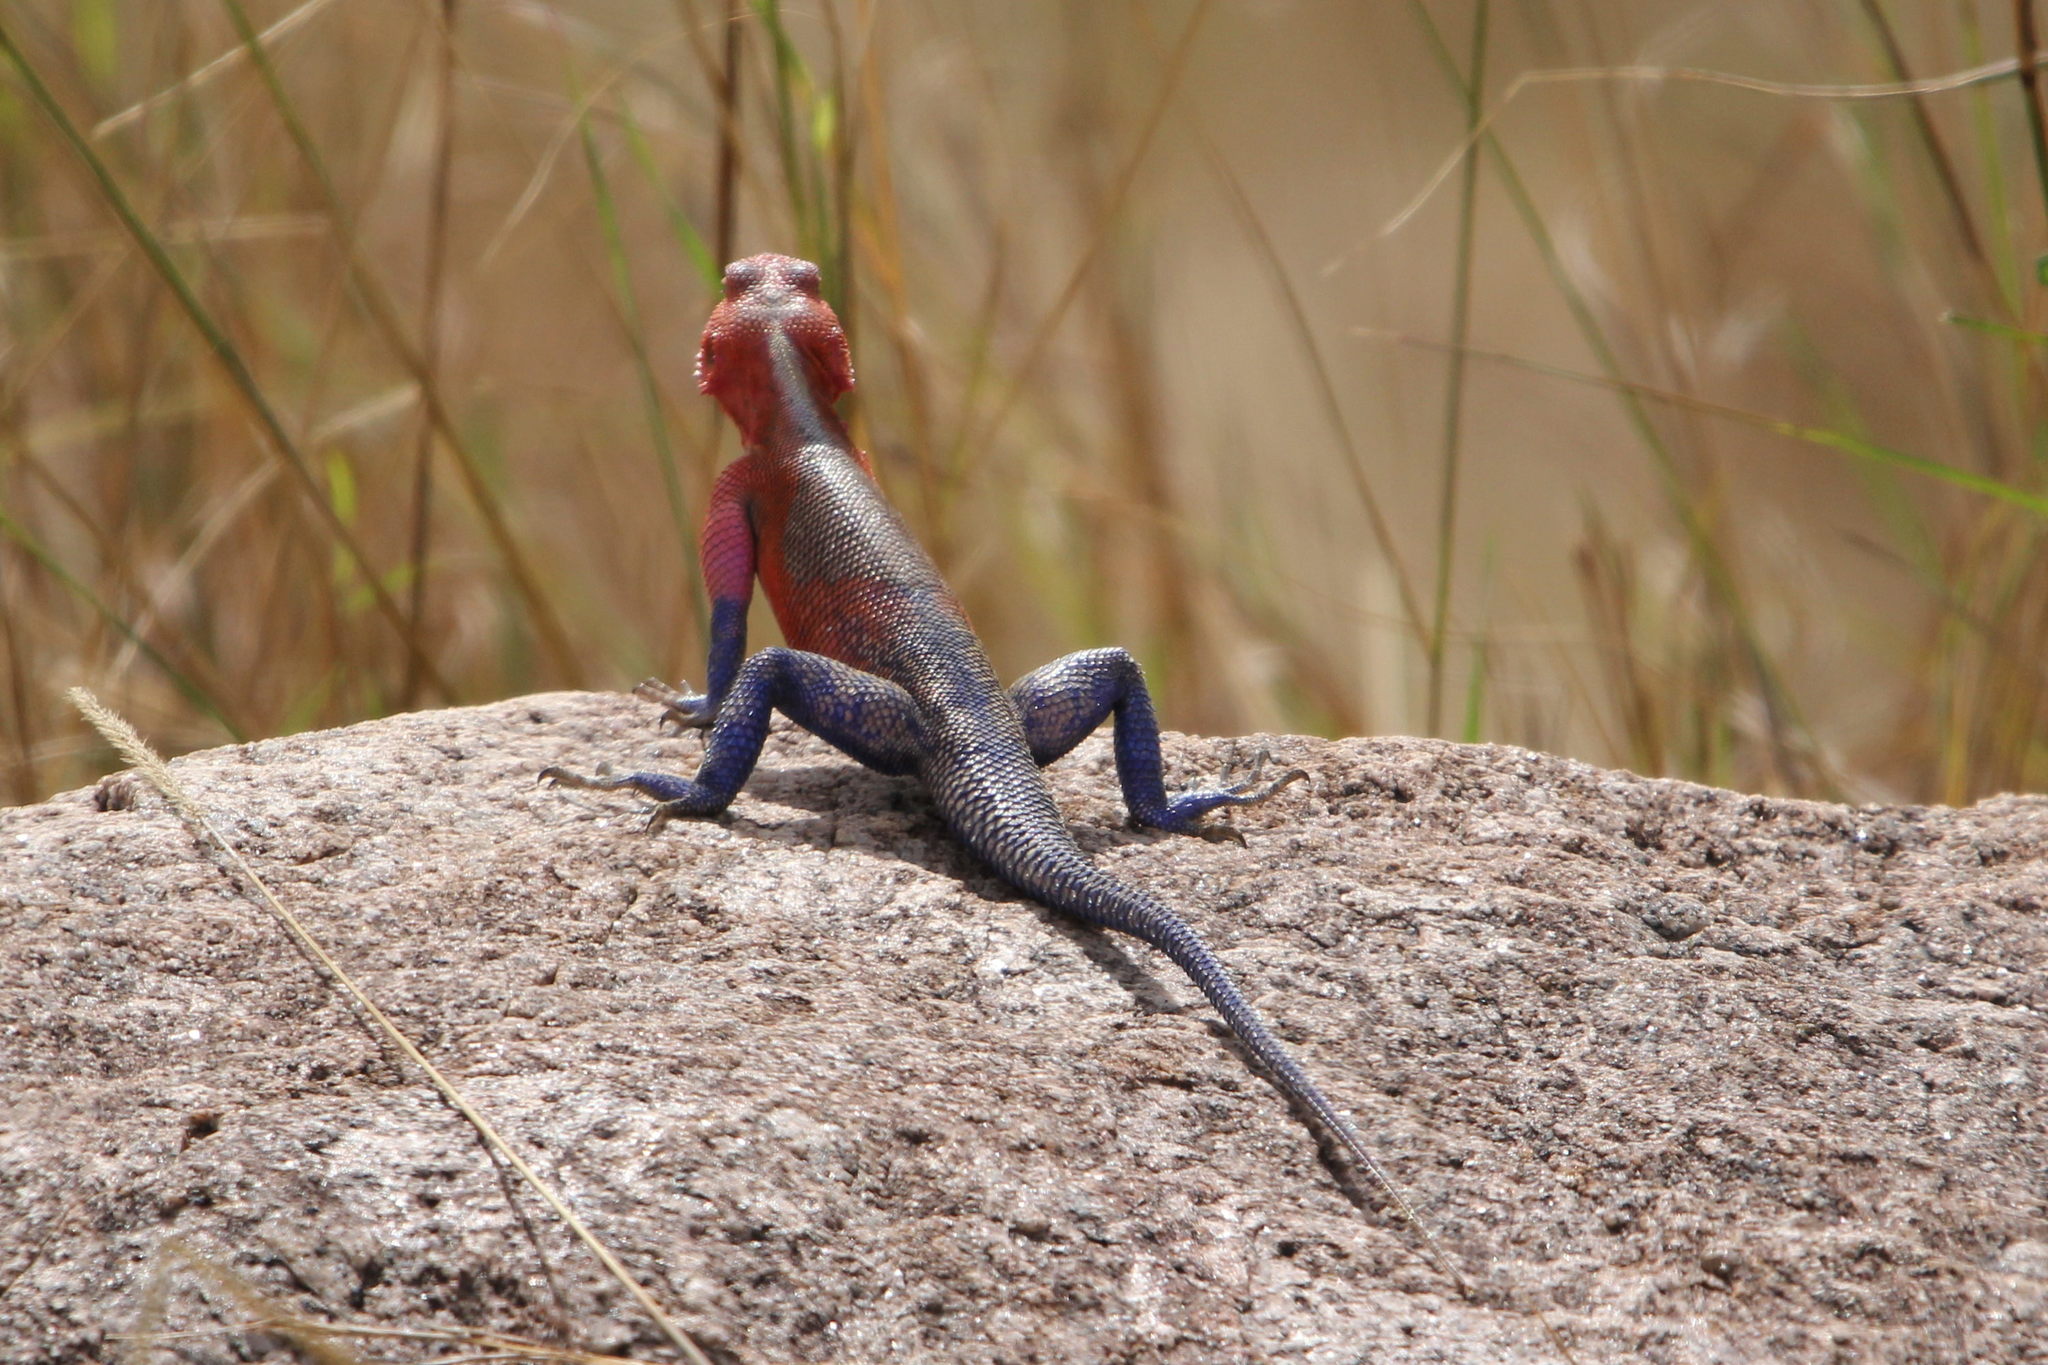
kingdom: Animalia
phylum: Chordata
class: Squamata
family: Agamidae
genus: Agama
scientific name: Agama mwanzae
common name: Mwanza flat-headed agama
